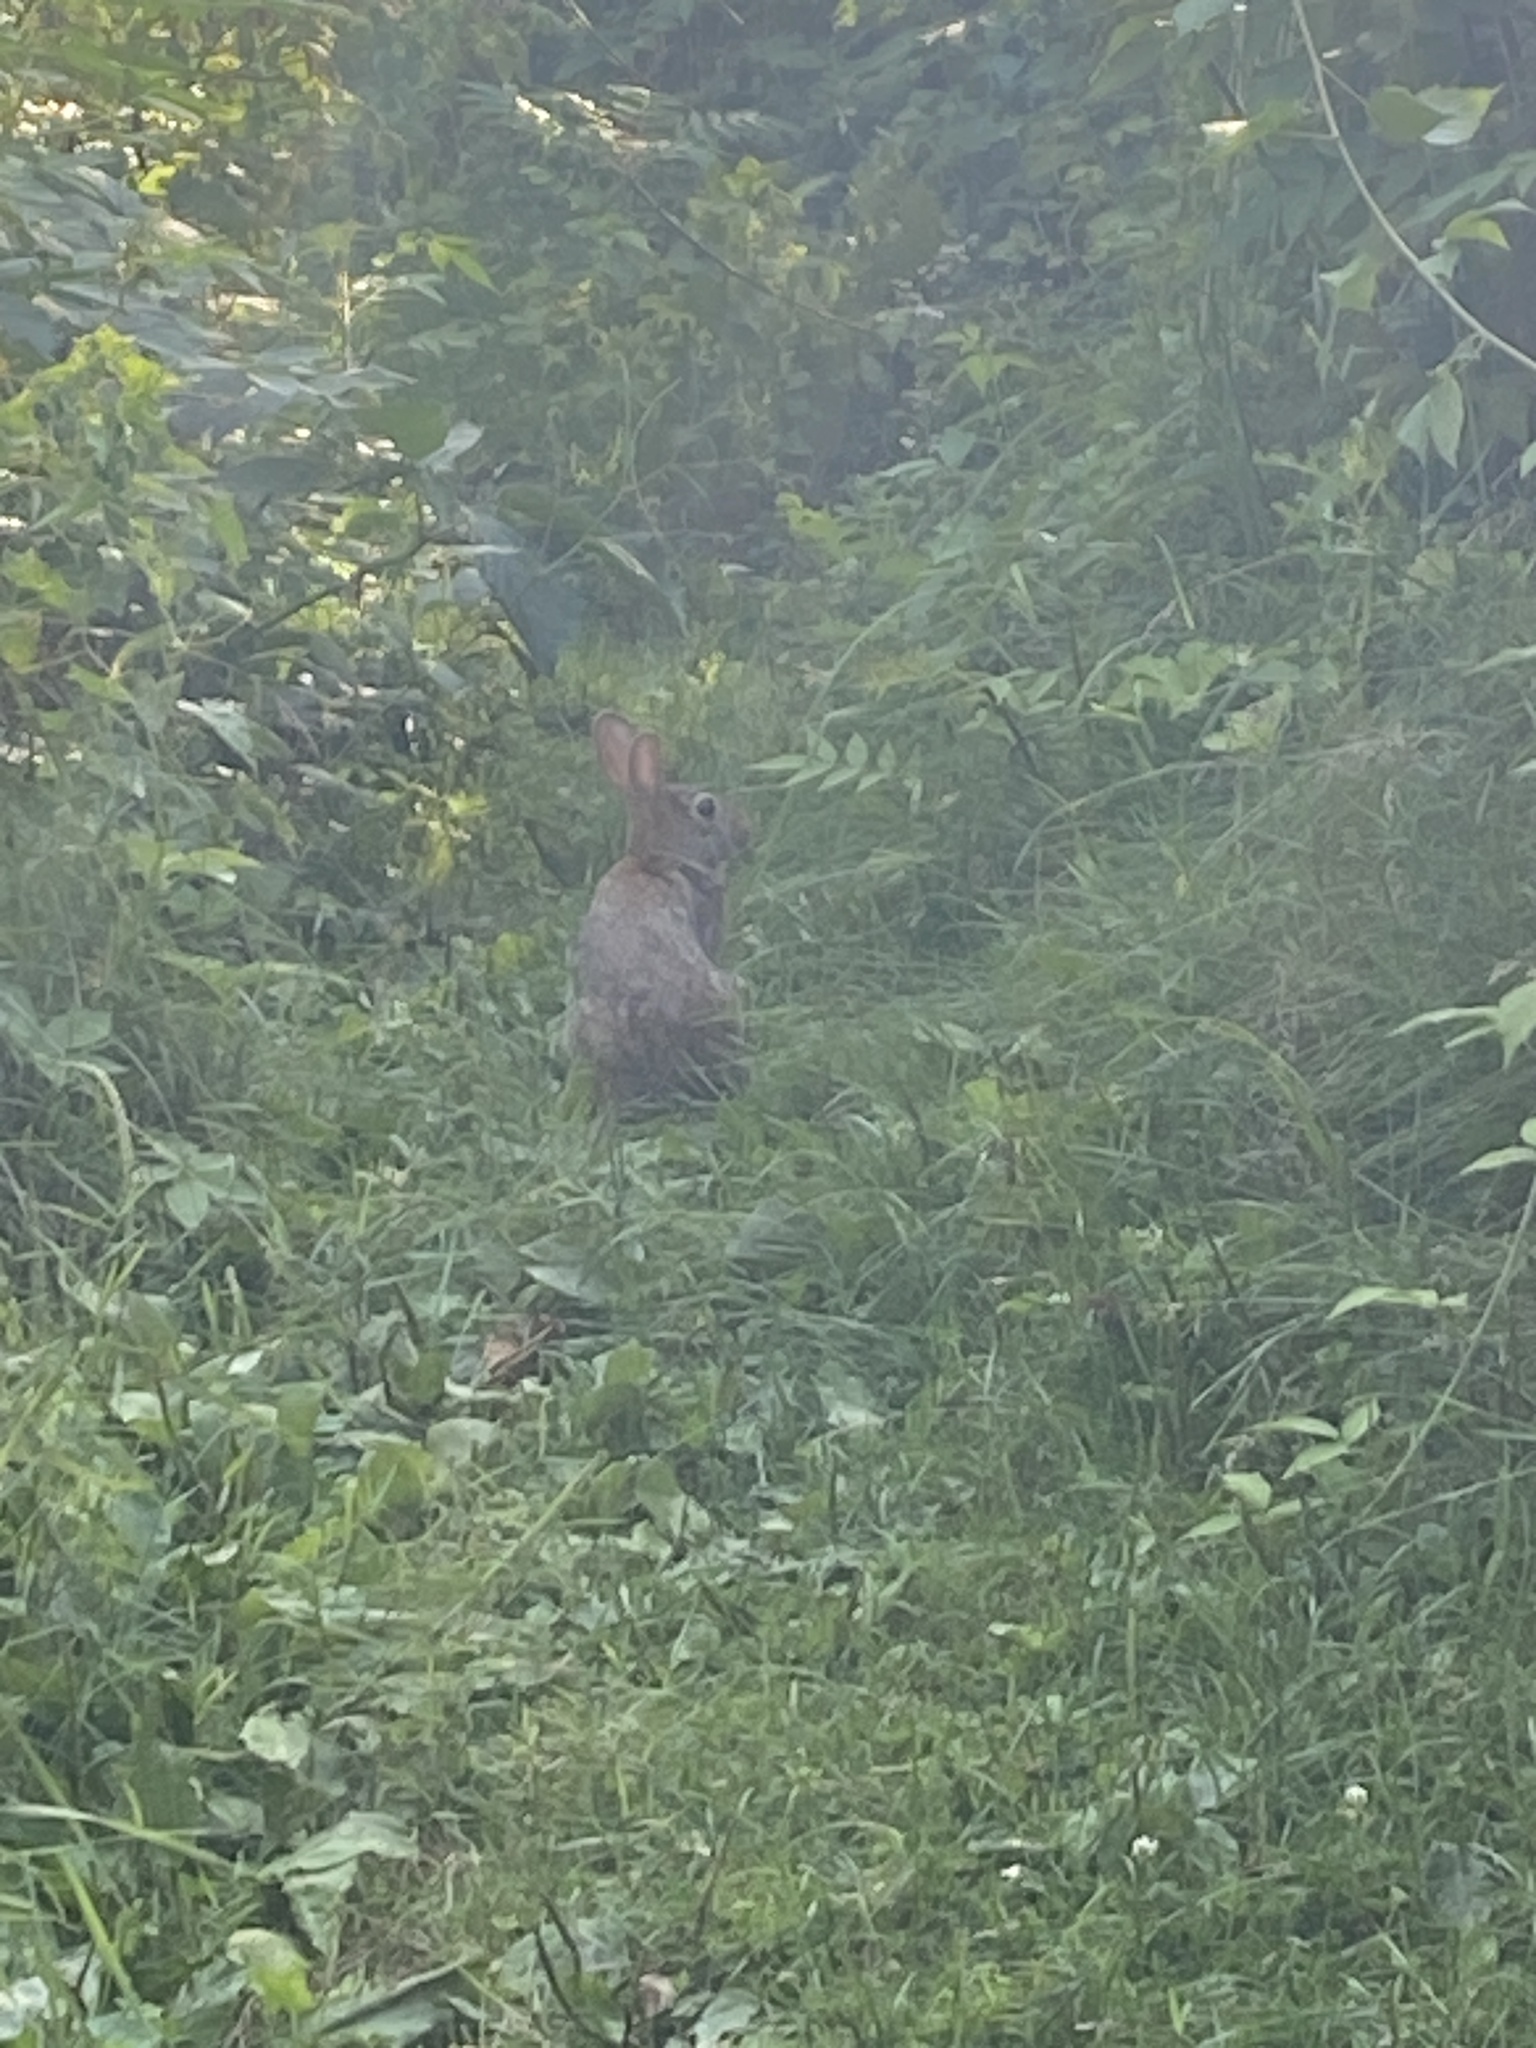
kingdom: Animalia
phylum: Chordata
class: Mammalia
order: Lagomorpha
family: Leporidae
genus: Sylvilagus
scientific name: Sylvilagus floridanus
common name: Eastern cottontail
